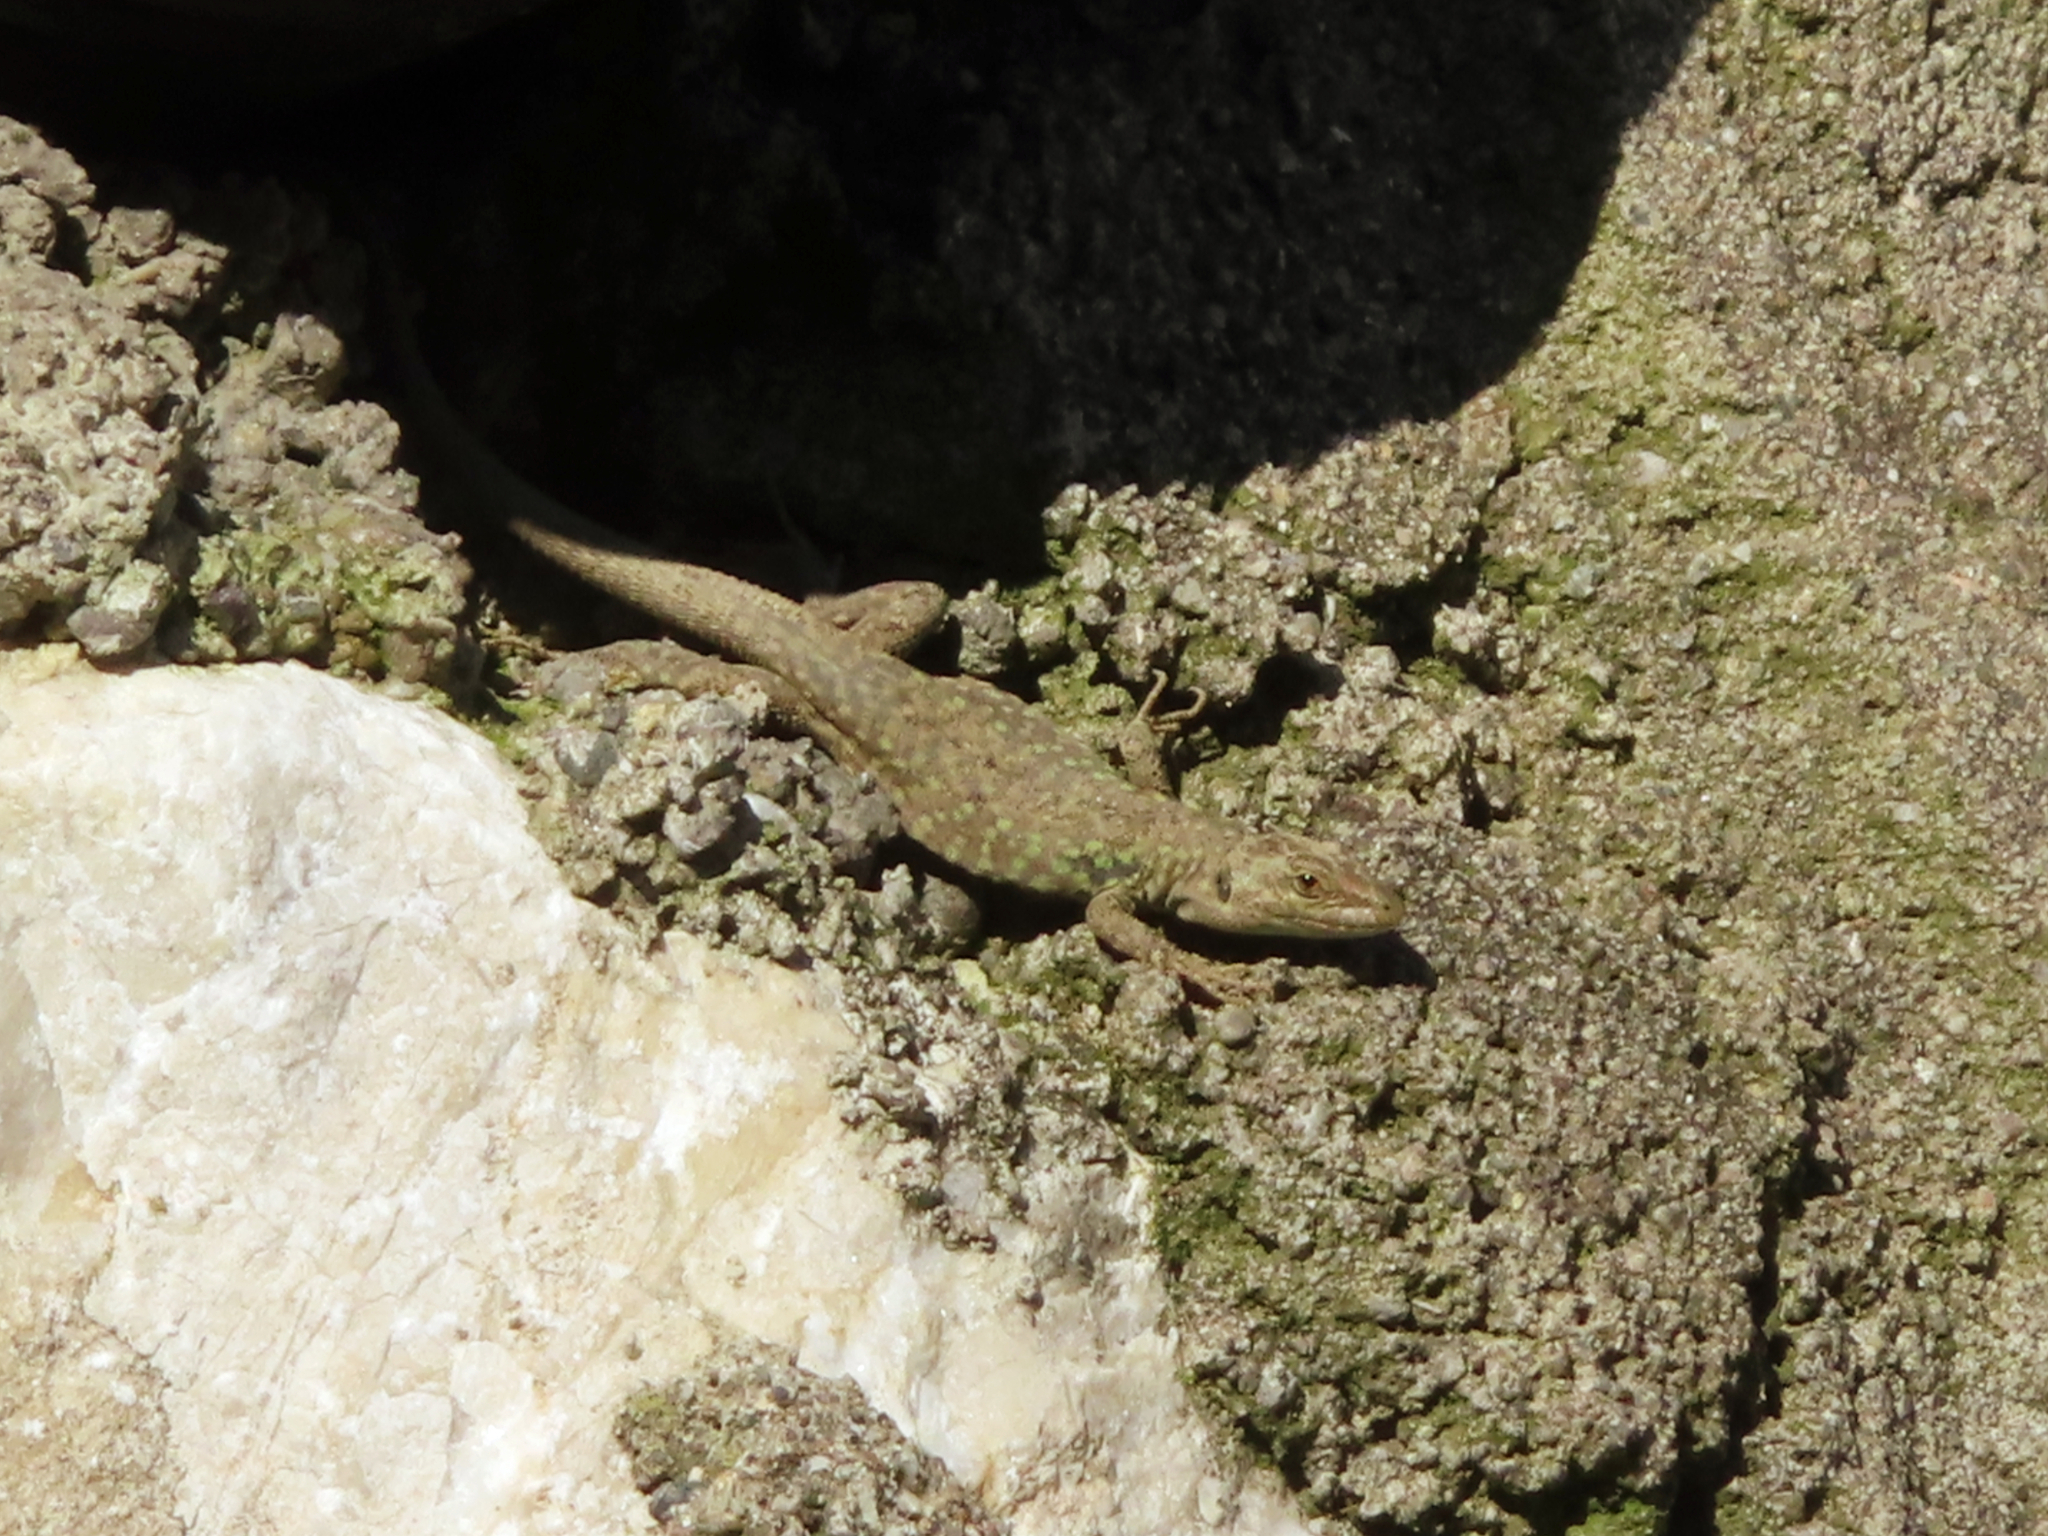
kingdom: Animalia
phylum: Chordata
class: Squamata
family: Lacertidae
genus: Podarcis
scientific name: Podarcis siculus
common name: Italian wall lizard
